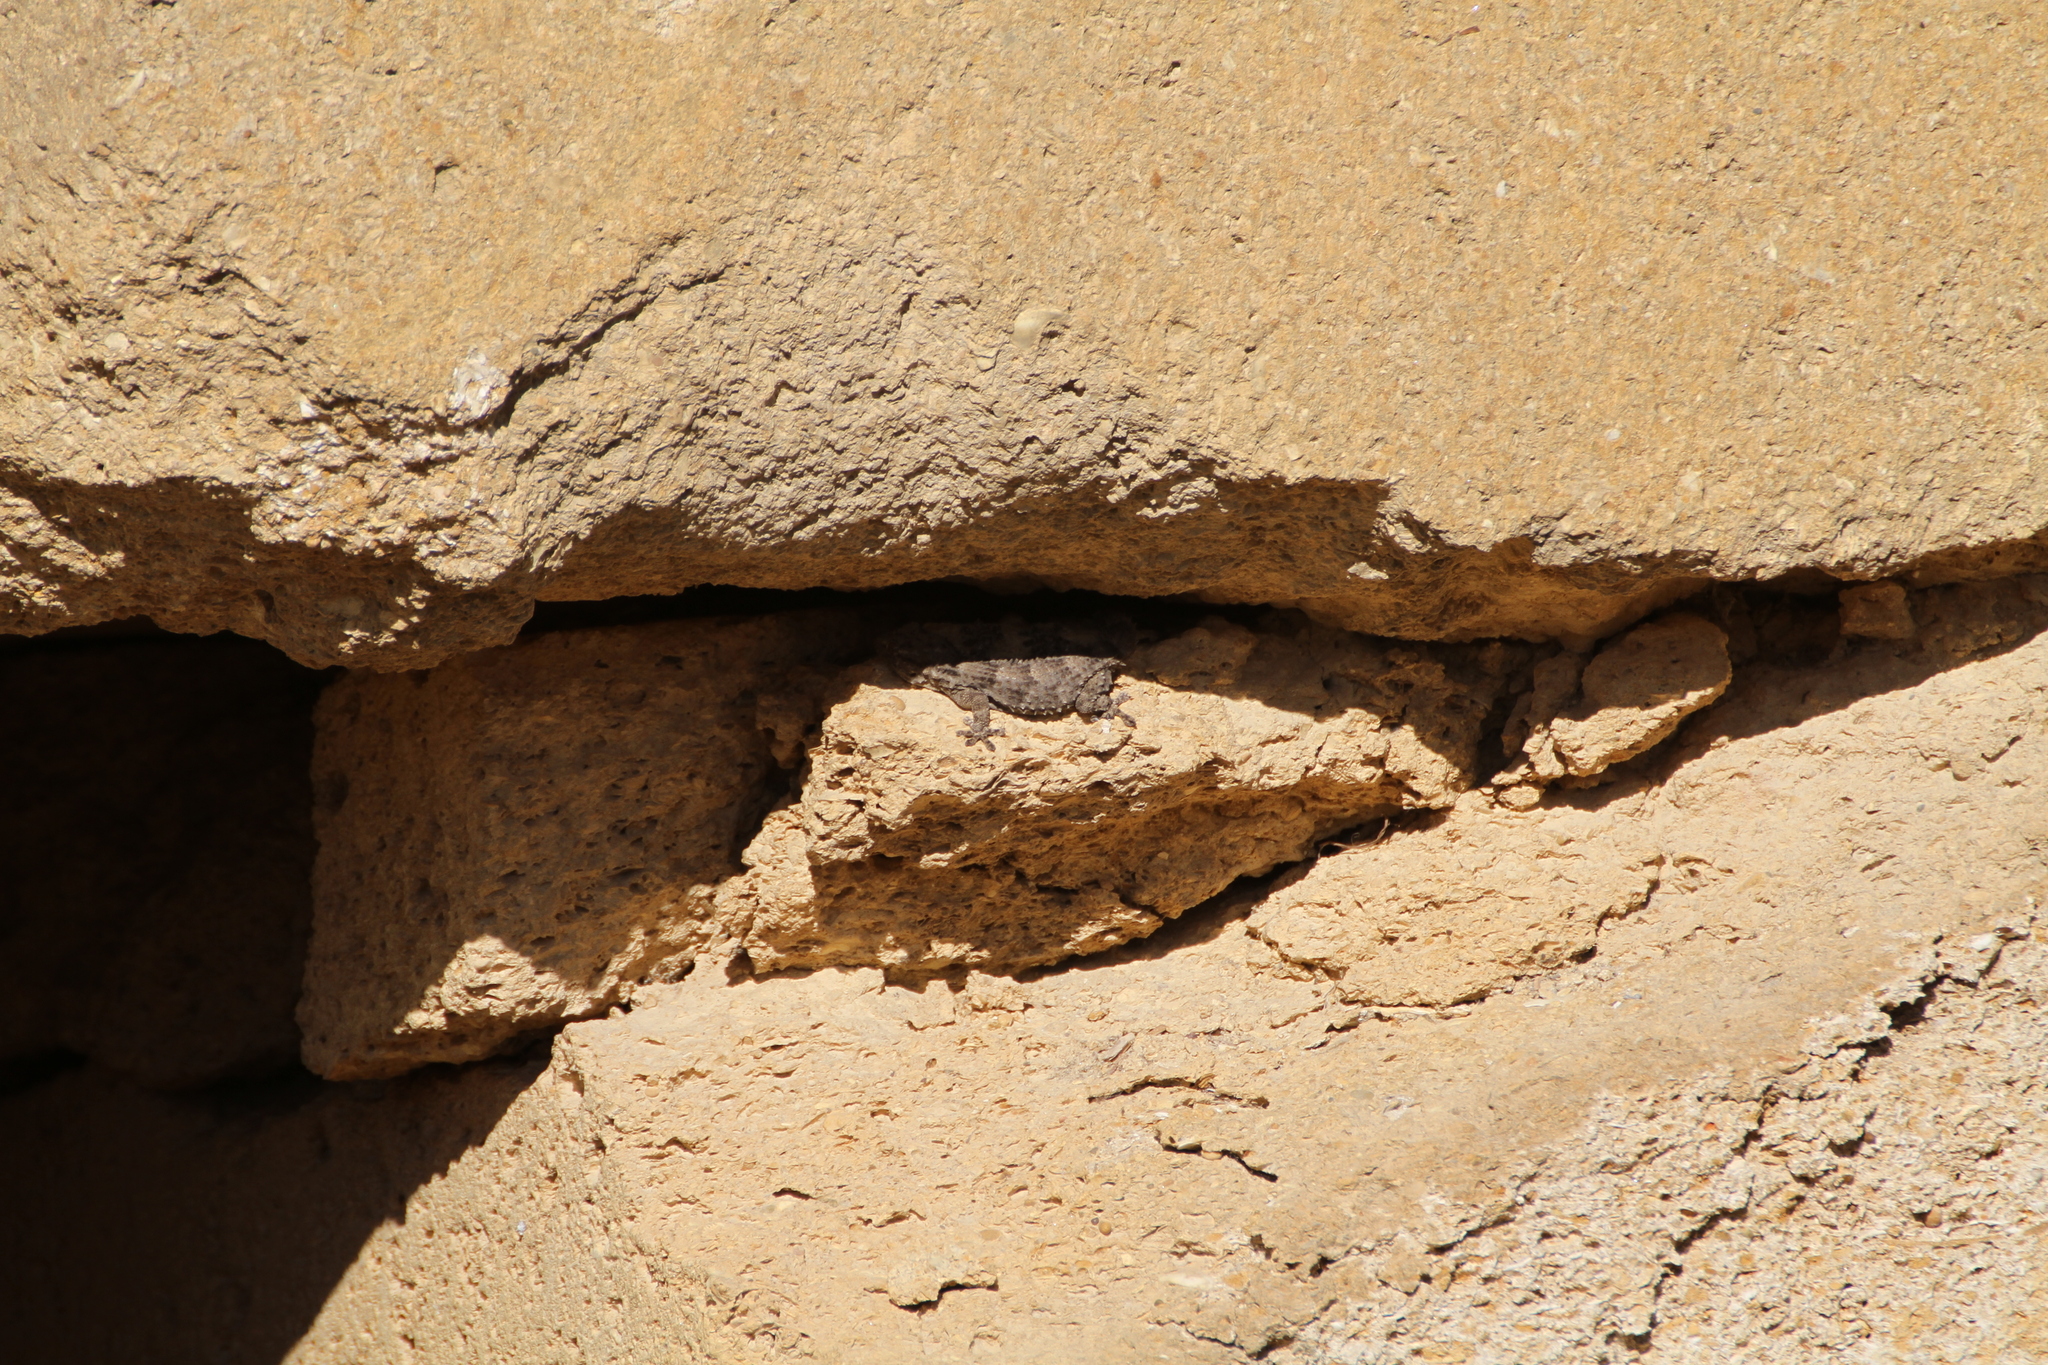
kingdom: Animalia
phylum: Chordata
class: Squamata
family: Phyllodactylidae
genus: Tarentola
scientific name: Tarentola mauritanica
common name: Moorish gecko
